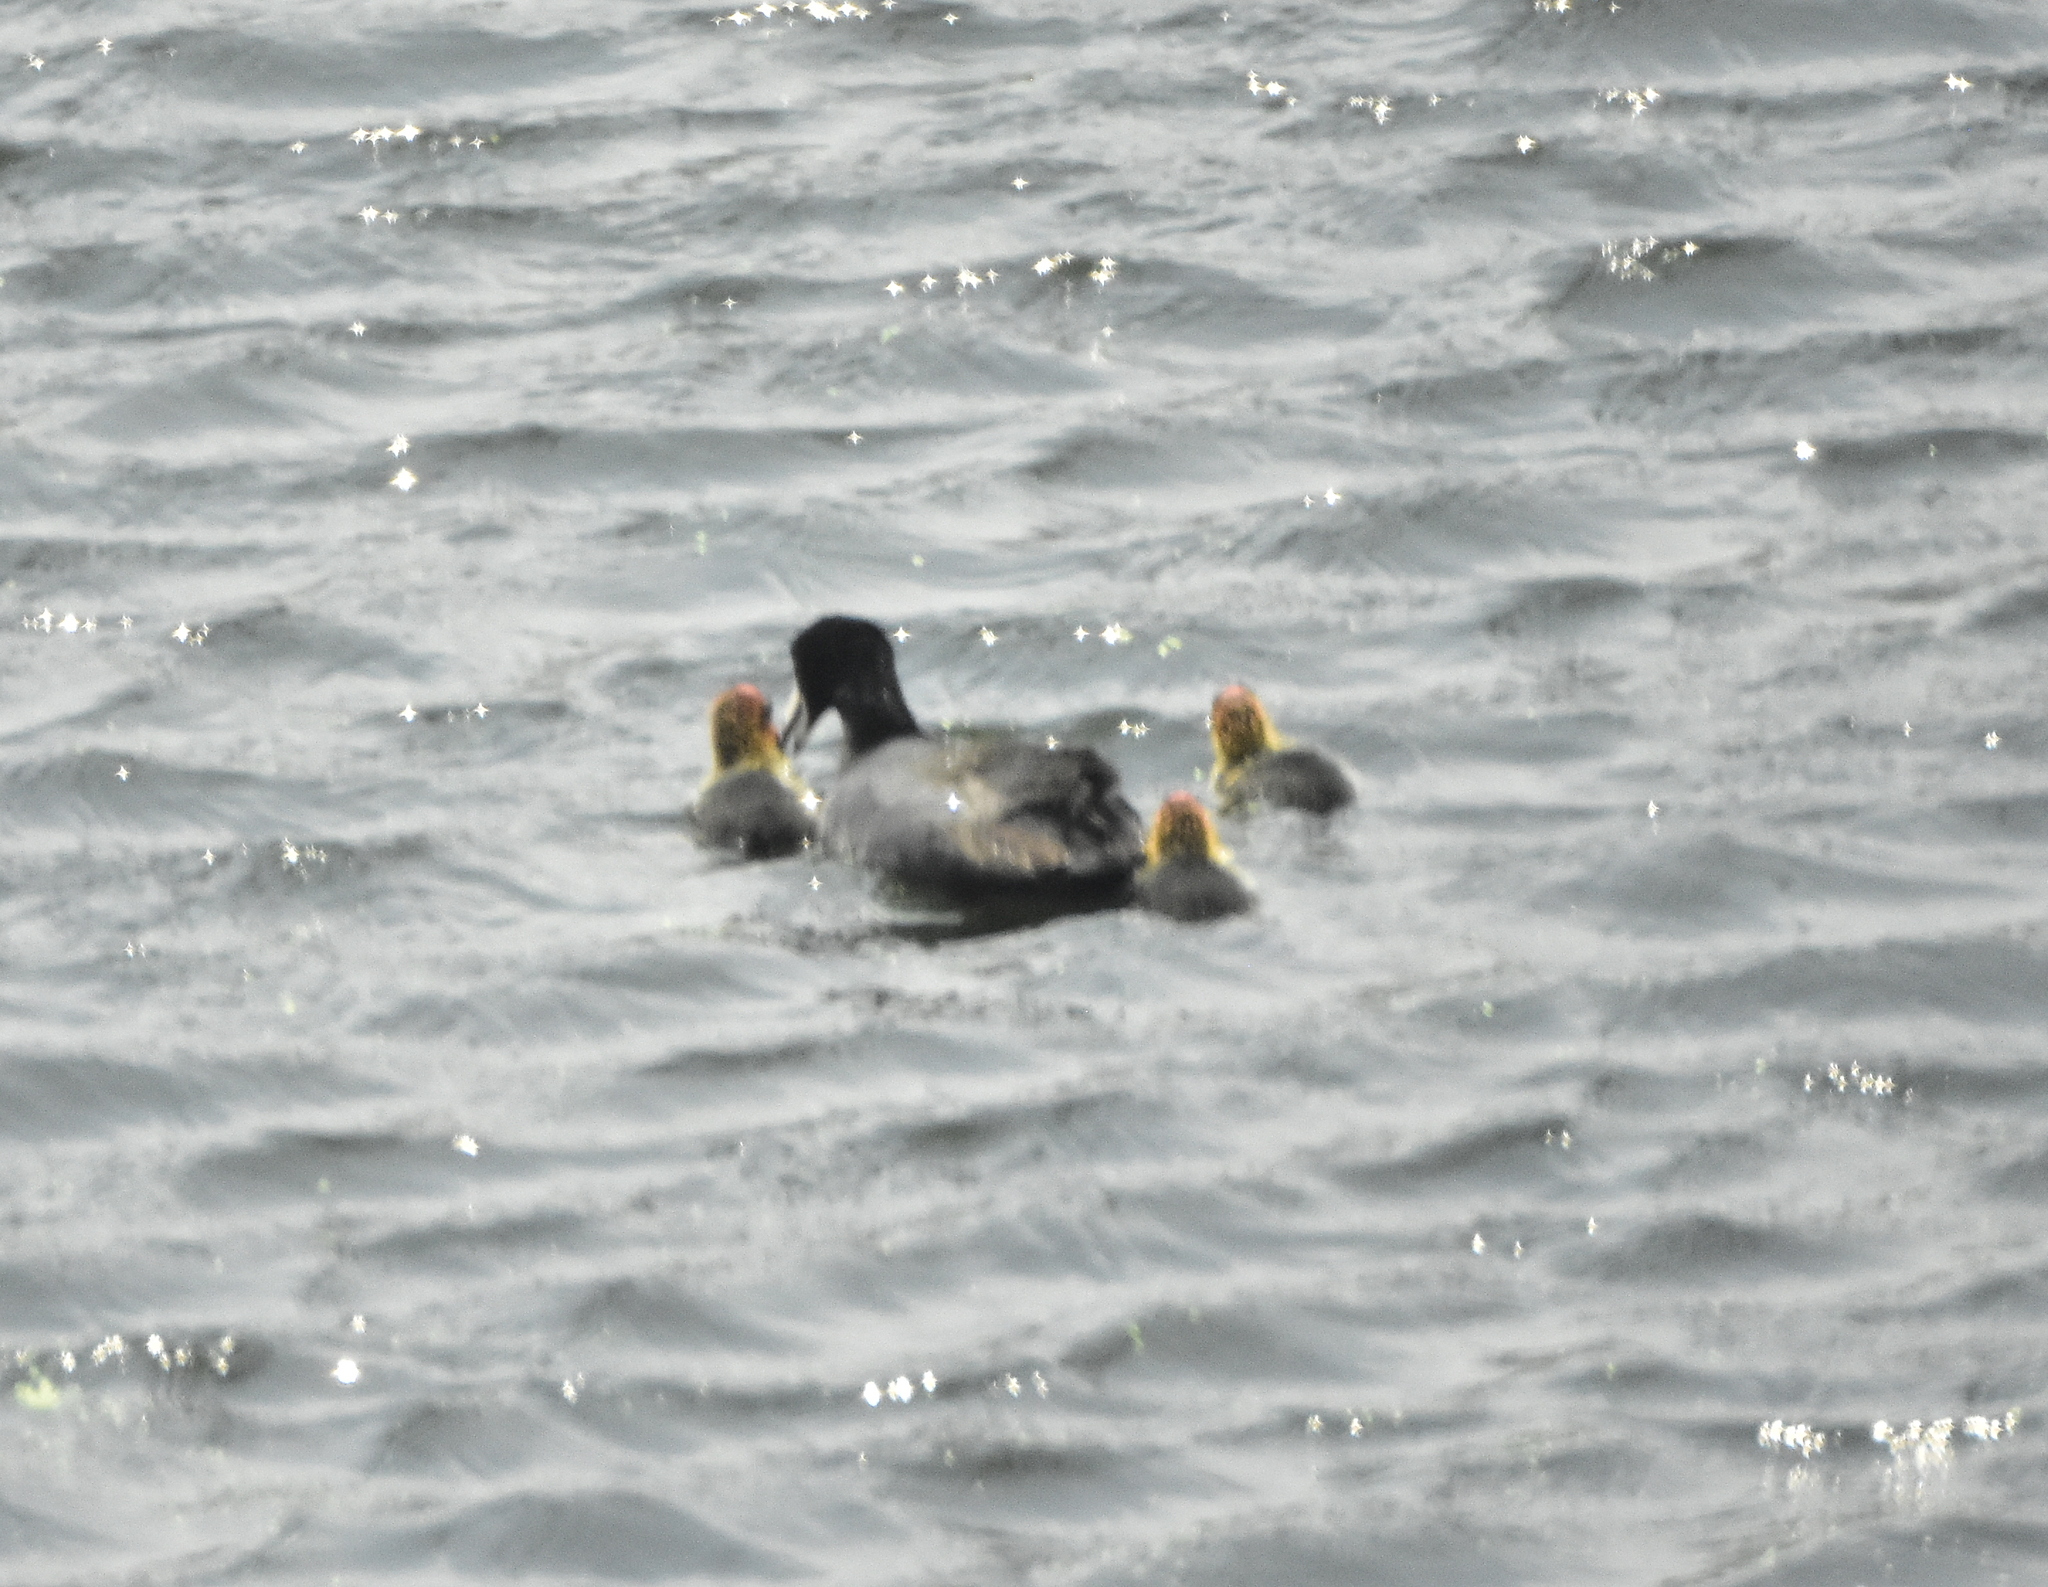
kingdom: Animalia
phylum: Chordata
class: Aves
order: Gruiformes
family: Rallidae
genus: Fulica
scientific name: Fulica americana
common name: American coot
